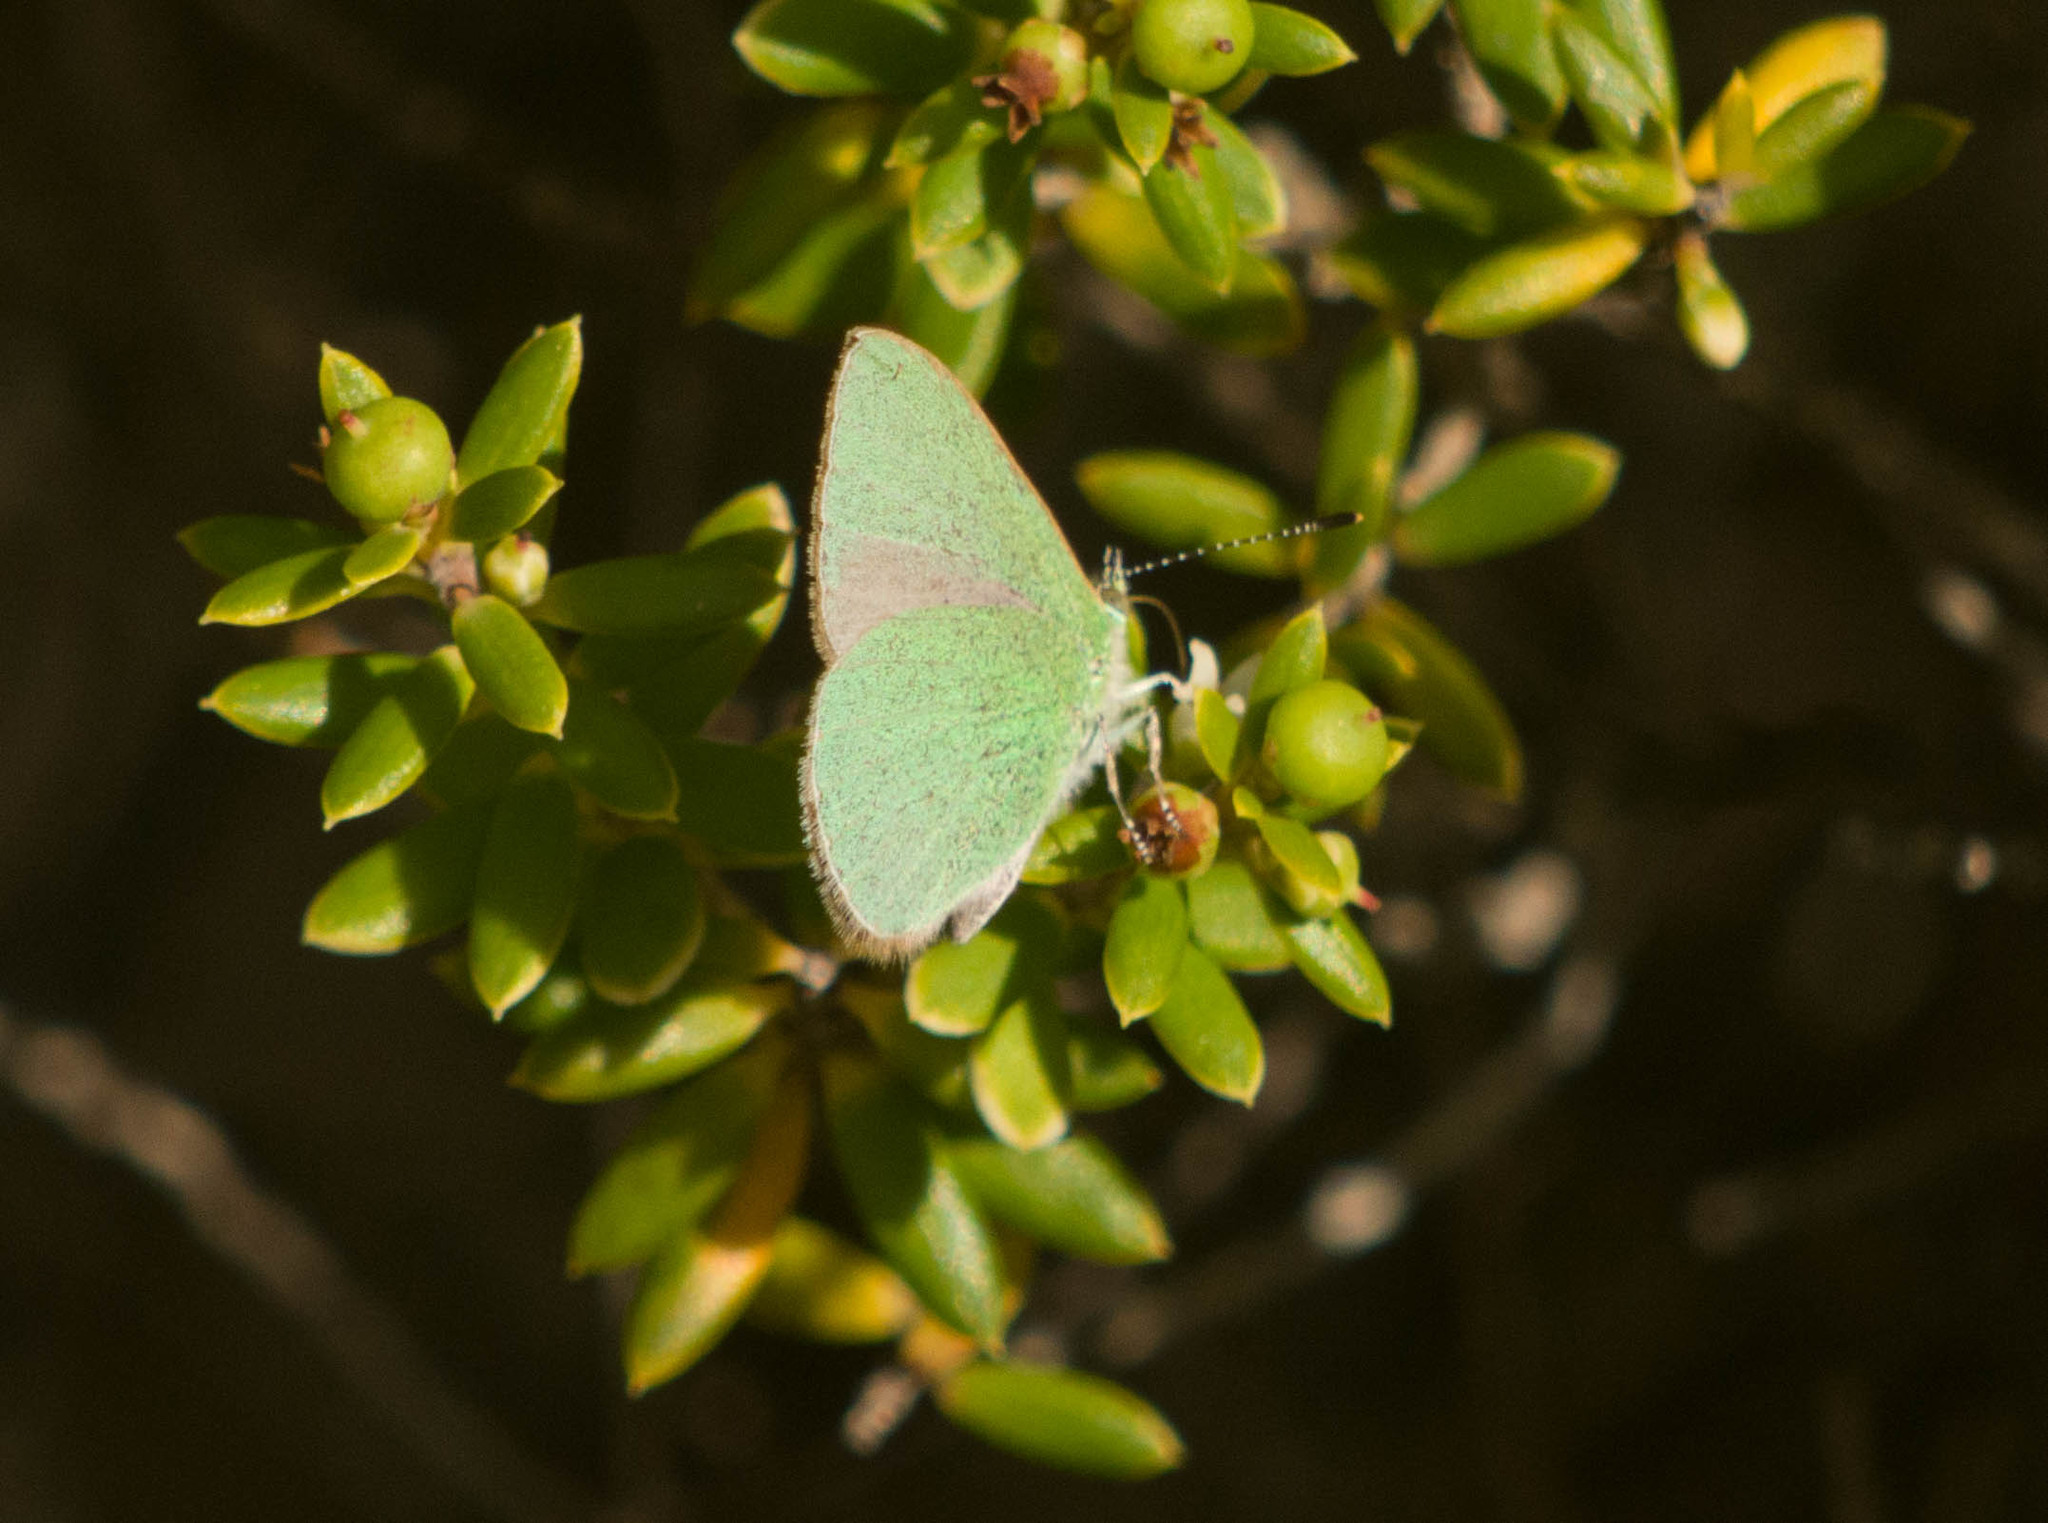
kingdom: Animalia
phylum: Arthropoda
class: Insecta
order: Lepidoptera
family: Lycaenidae
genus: Udara
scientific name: Udara blackburni
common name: Blackburn's blue
